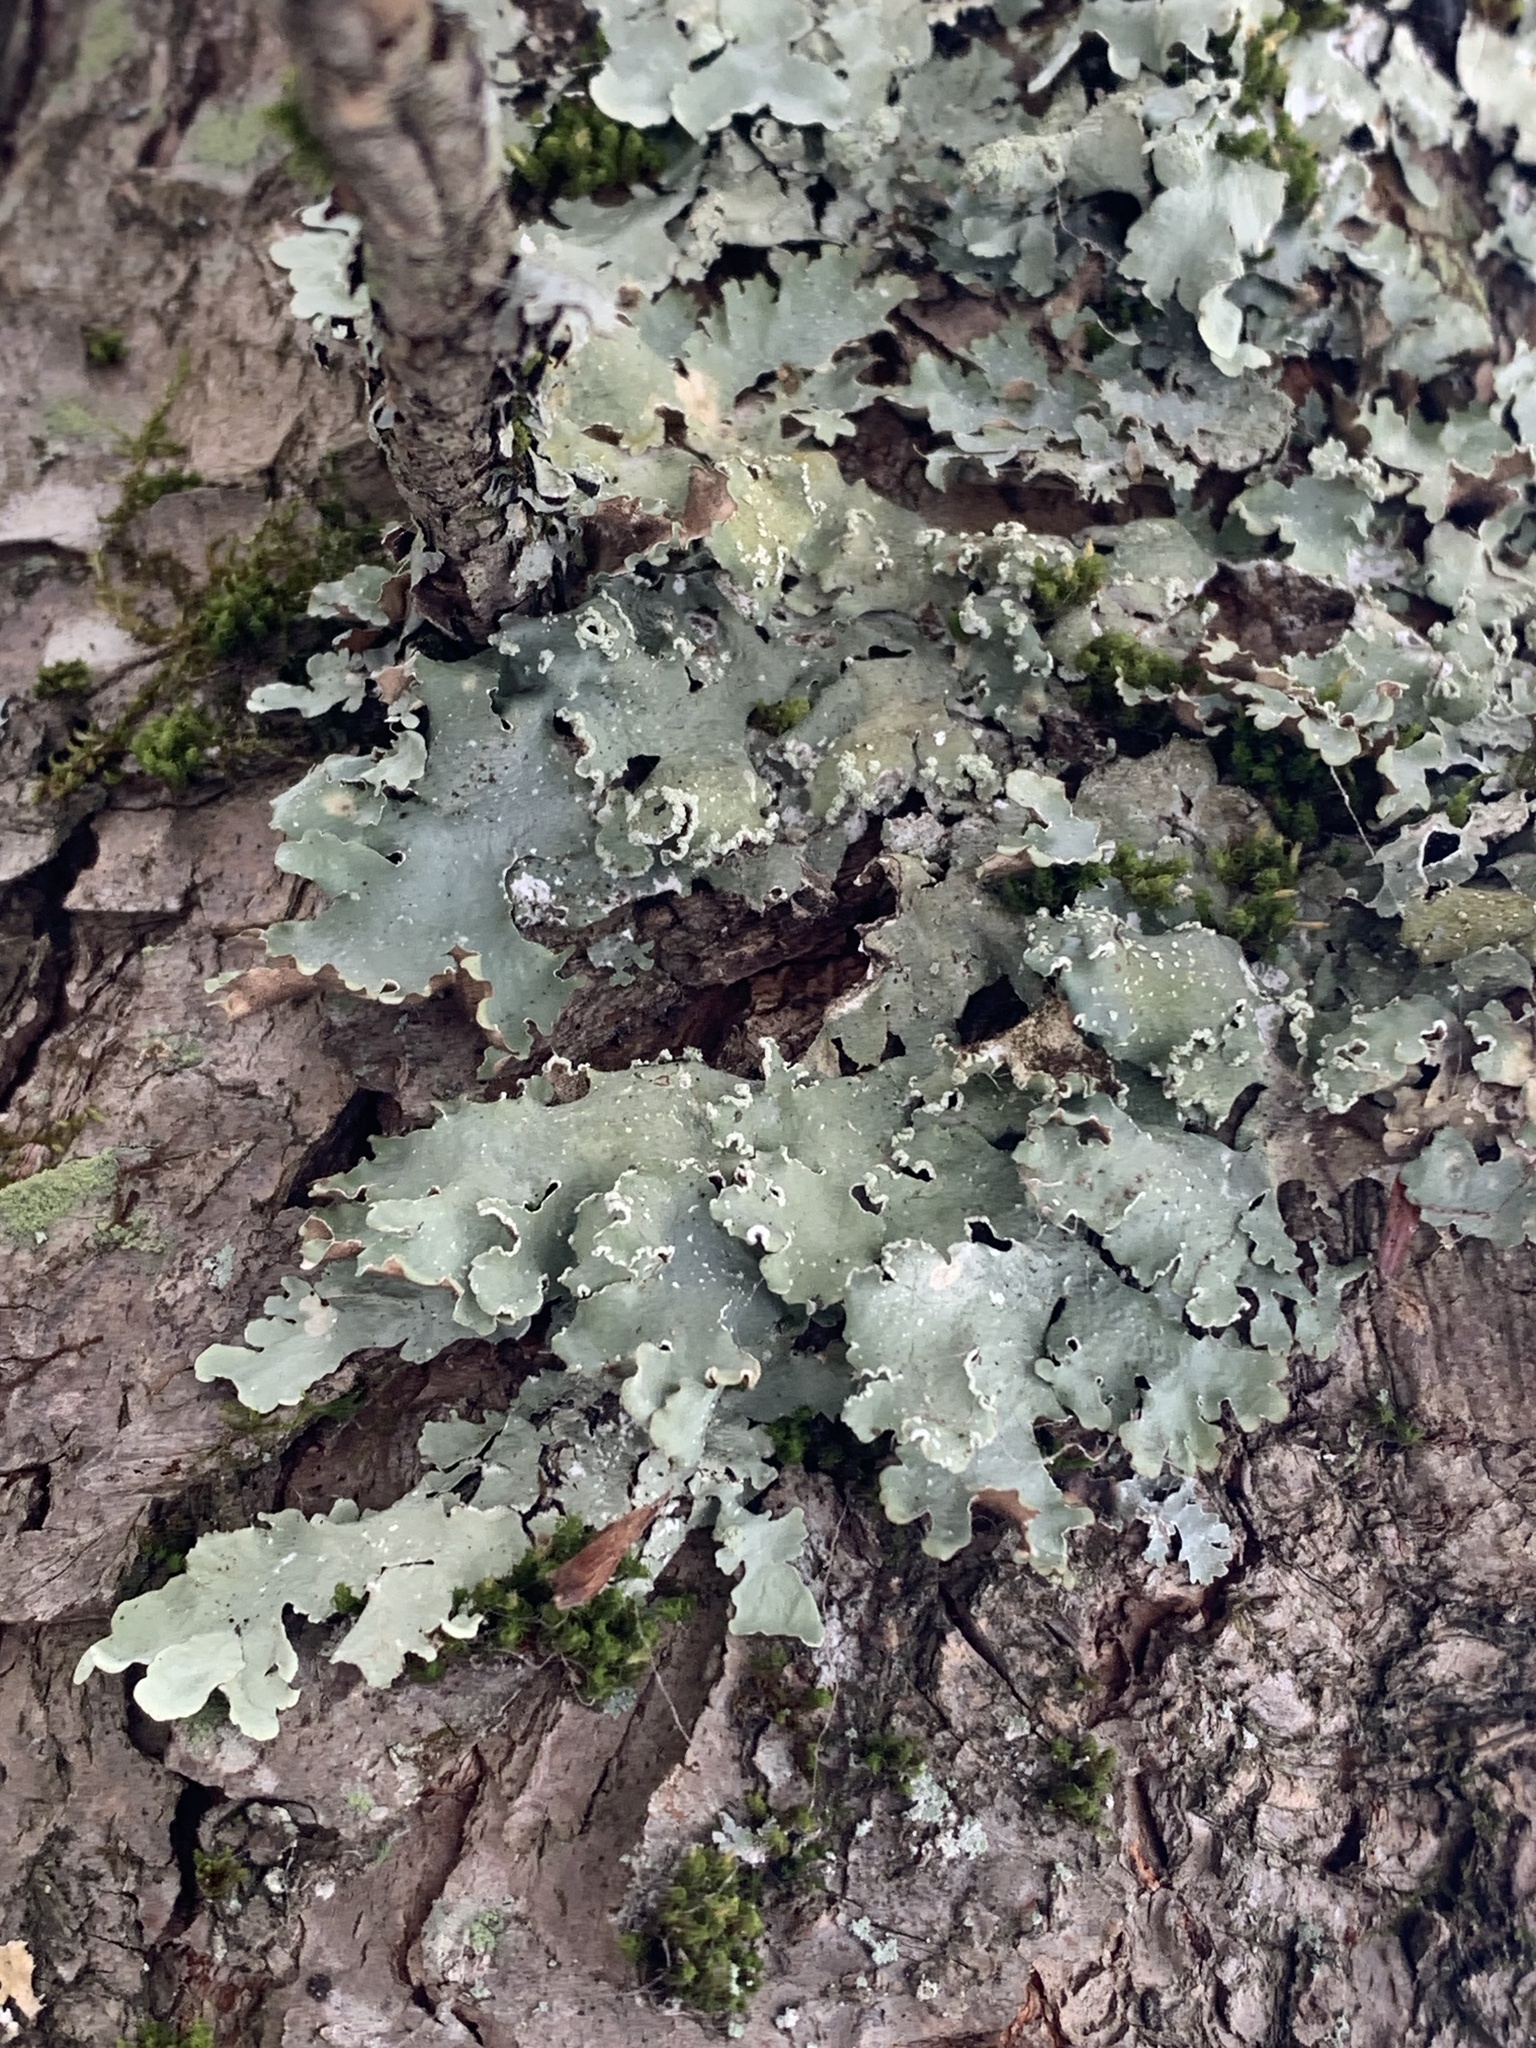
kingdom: Fungi
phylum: Ascomycota
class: Lecanoromycetes
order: Lecanorales
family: Parmeliaceae
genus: Punctelia
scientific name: Punctelia caseana
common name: Moondust speckled lichen
